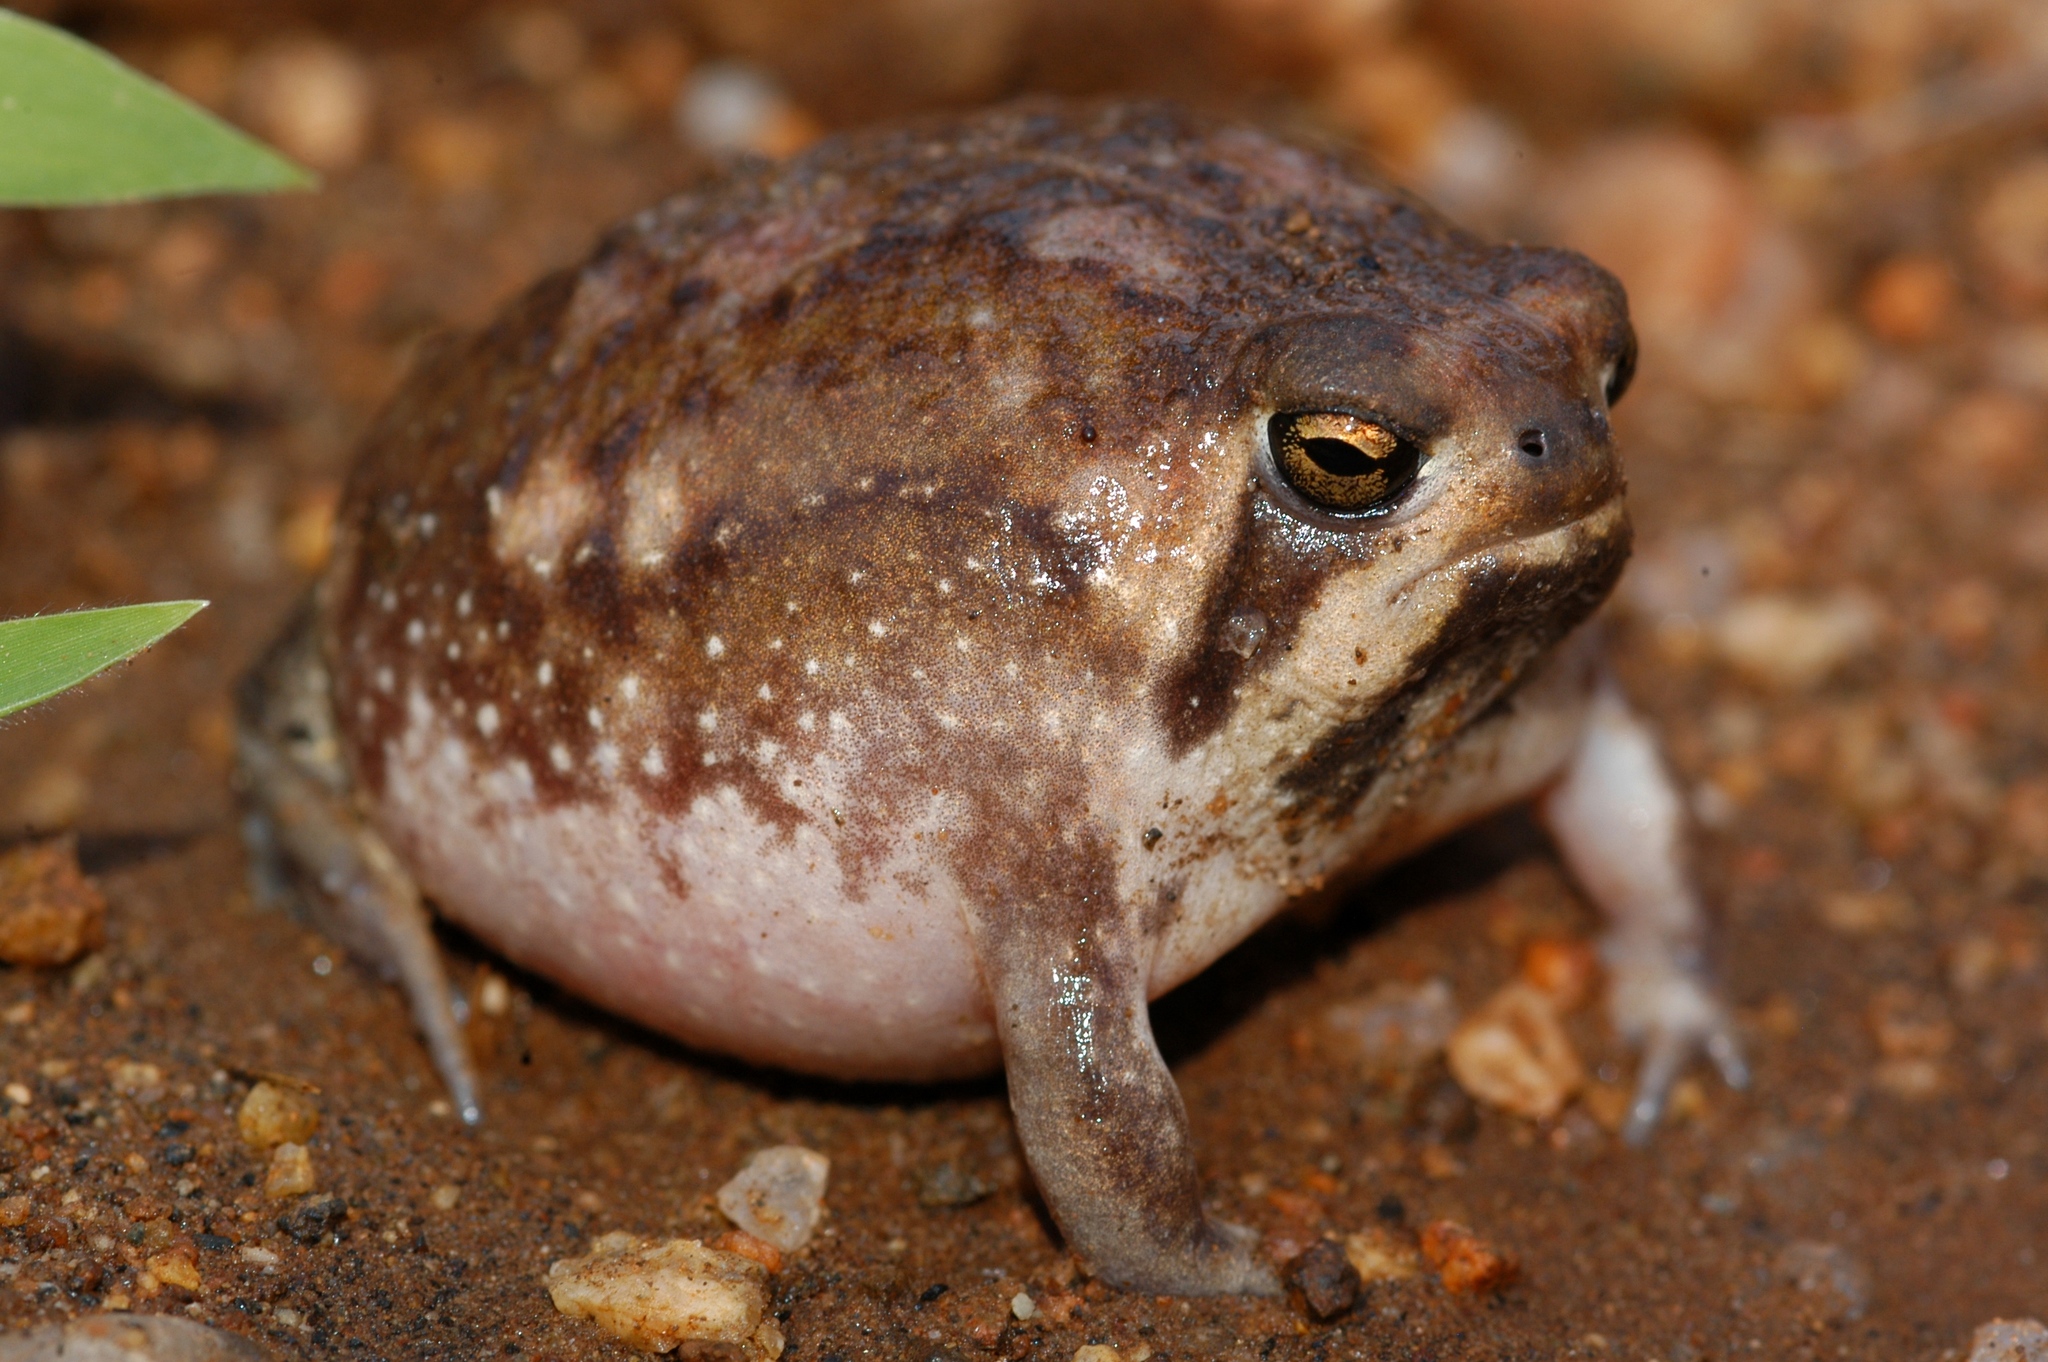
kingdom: Animalia
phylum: Chordata
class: Amphibia
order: Anura
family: Brevicipitidae
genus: Breviceps
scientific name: Breviceps passmorei
